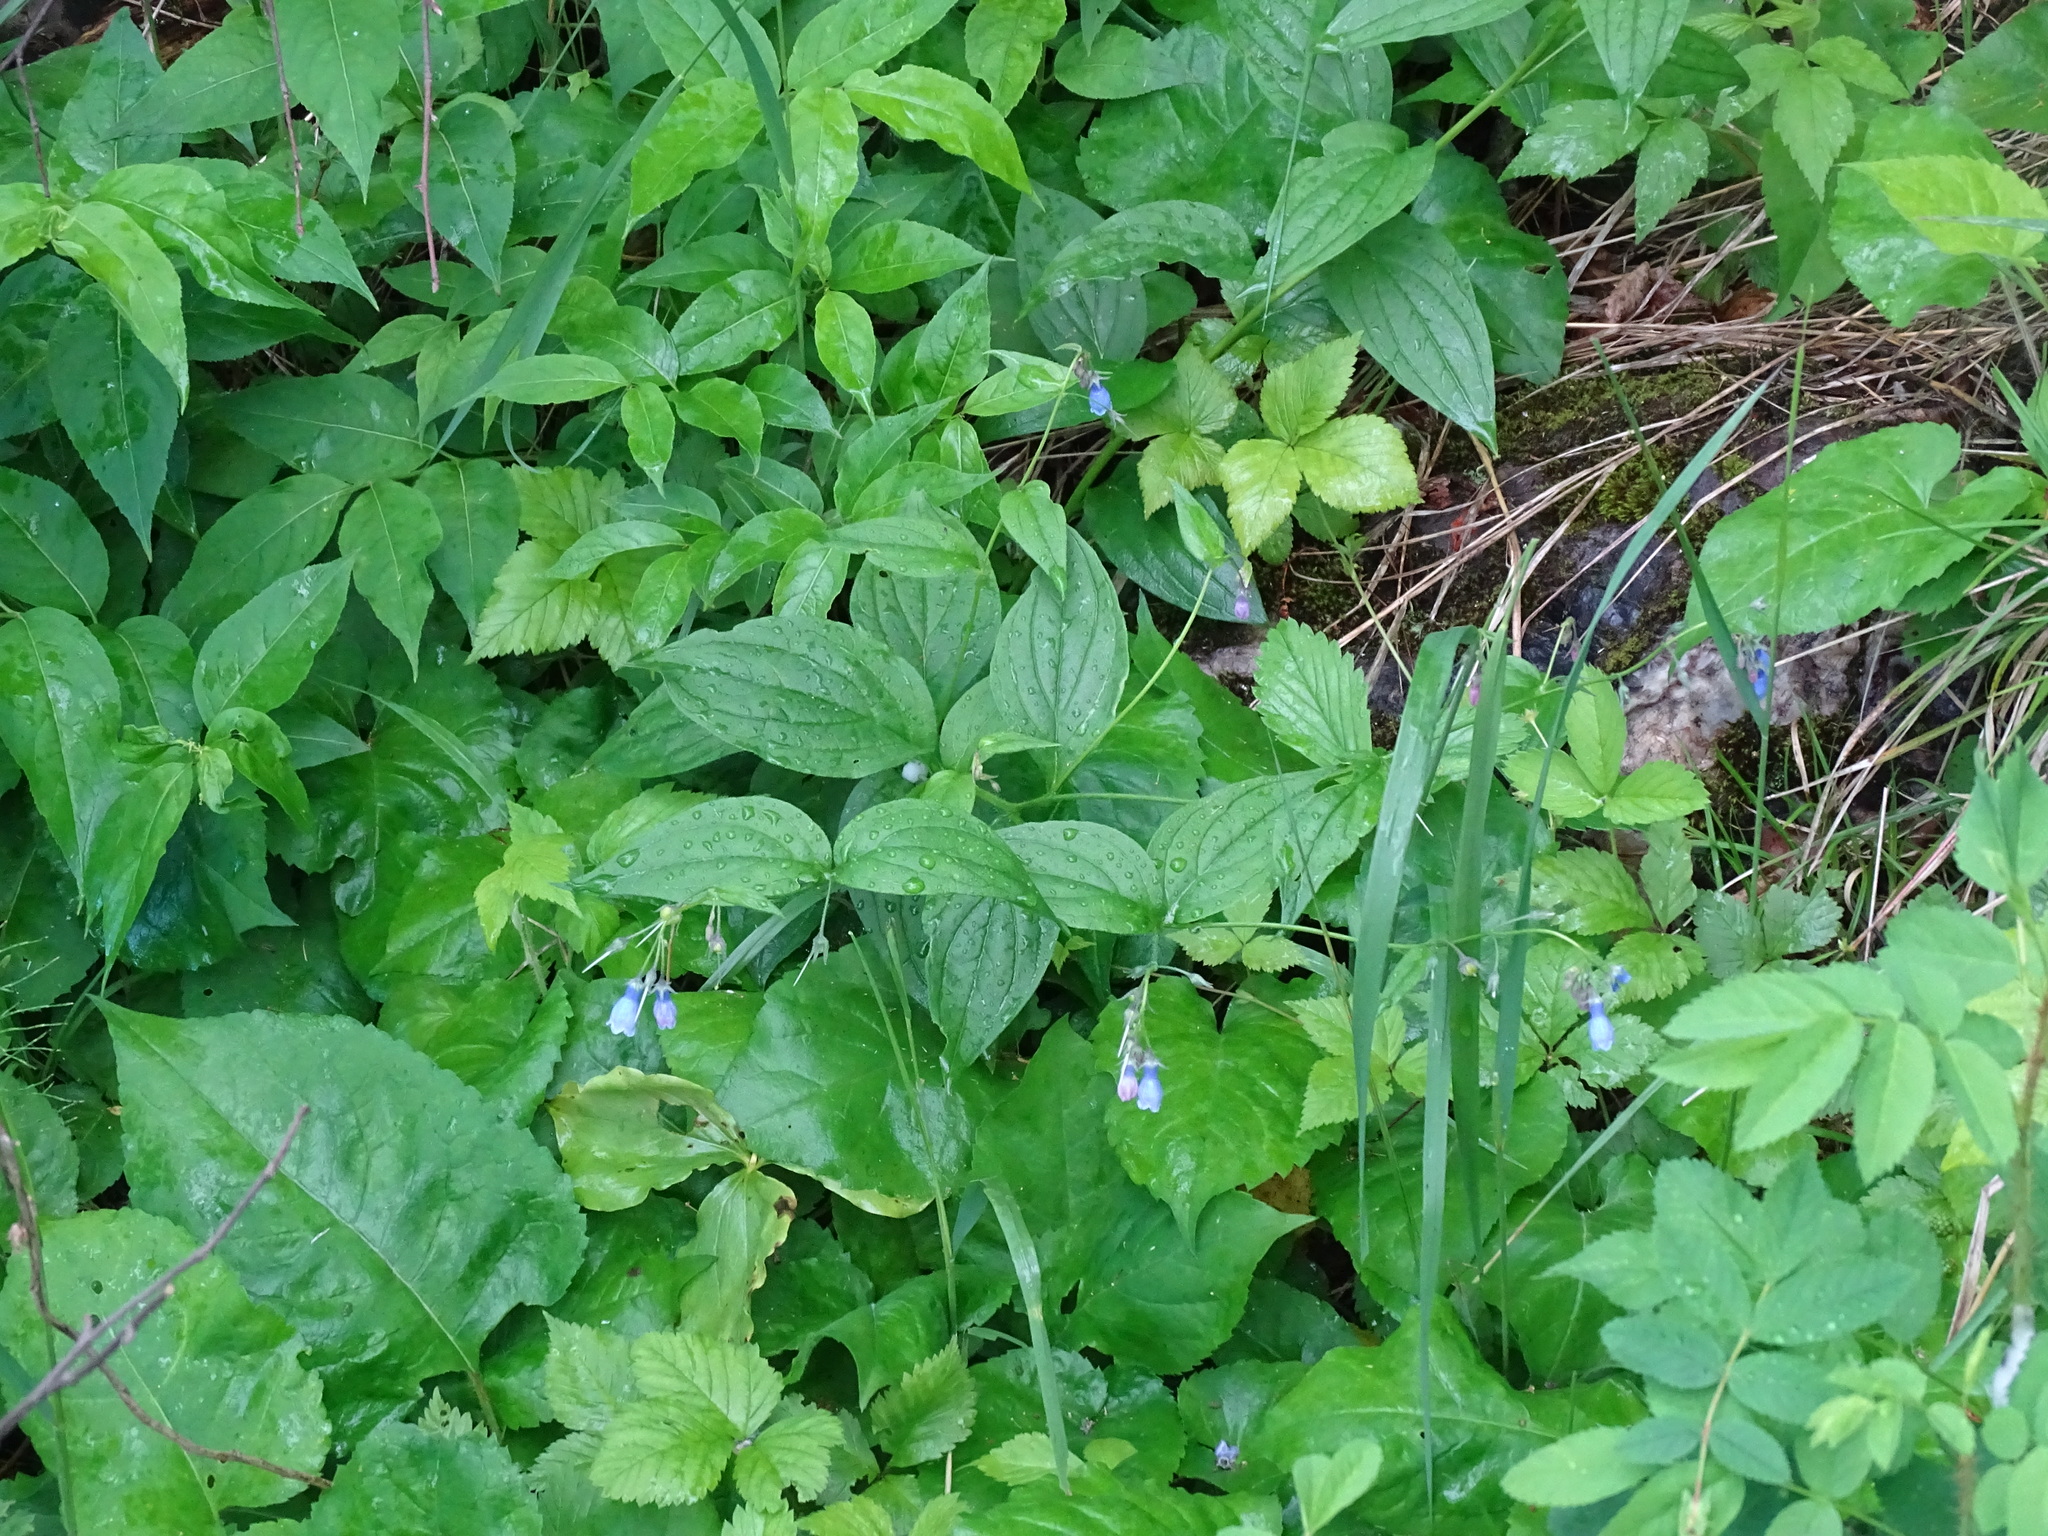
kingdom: Plantae
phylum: Tracheophyta
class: Magnoliopsida
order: Boraginales
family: Boraginaceae
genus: Mertensia
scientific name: Mertensia paniculata
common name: Panicled bluebells
